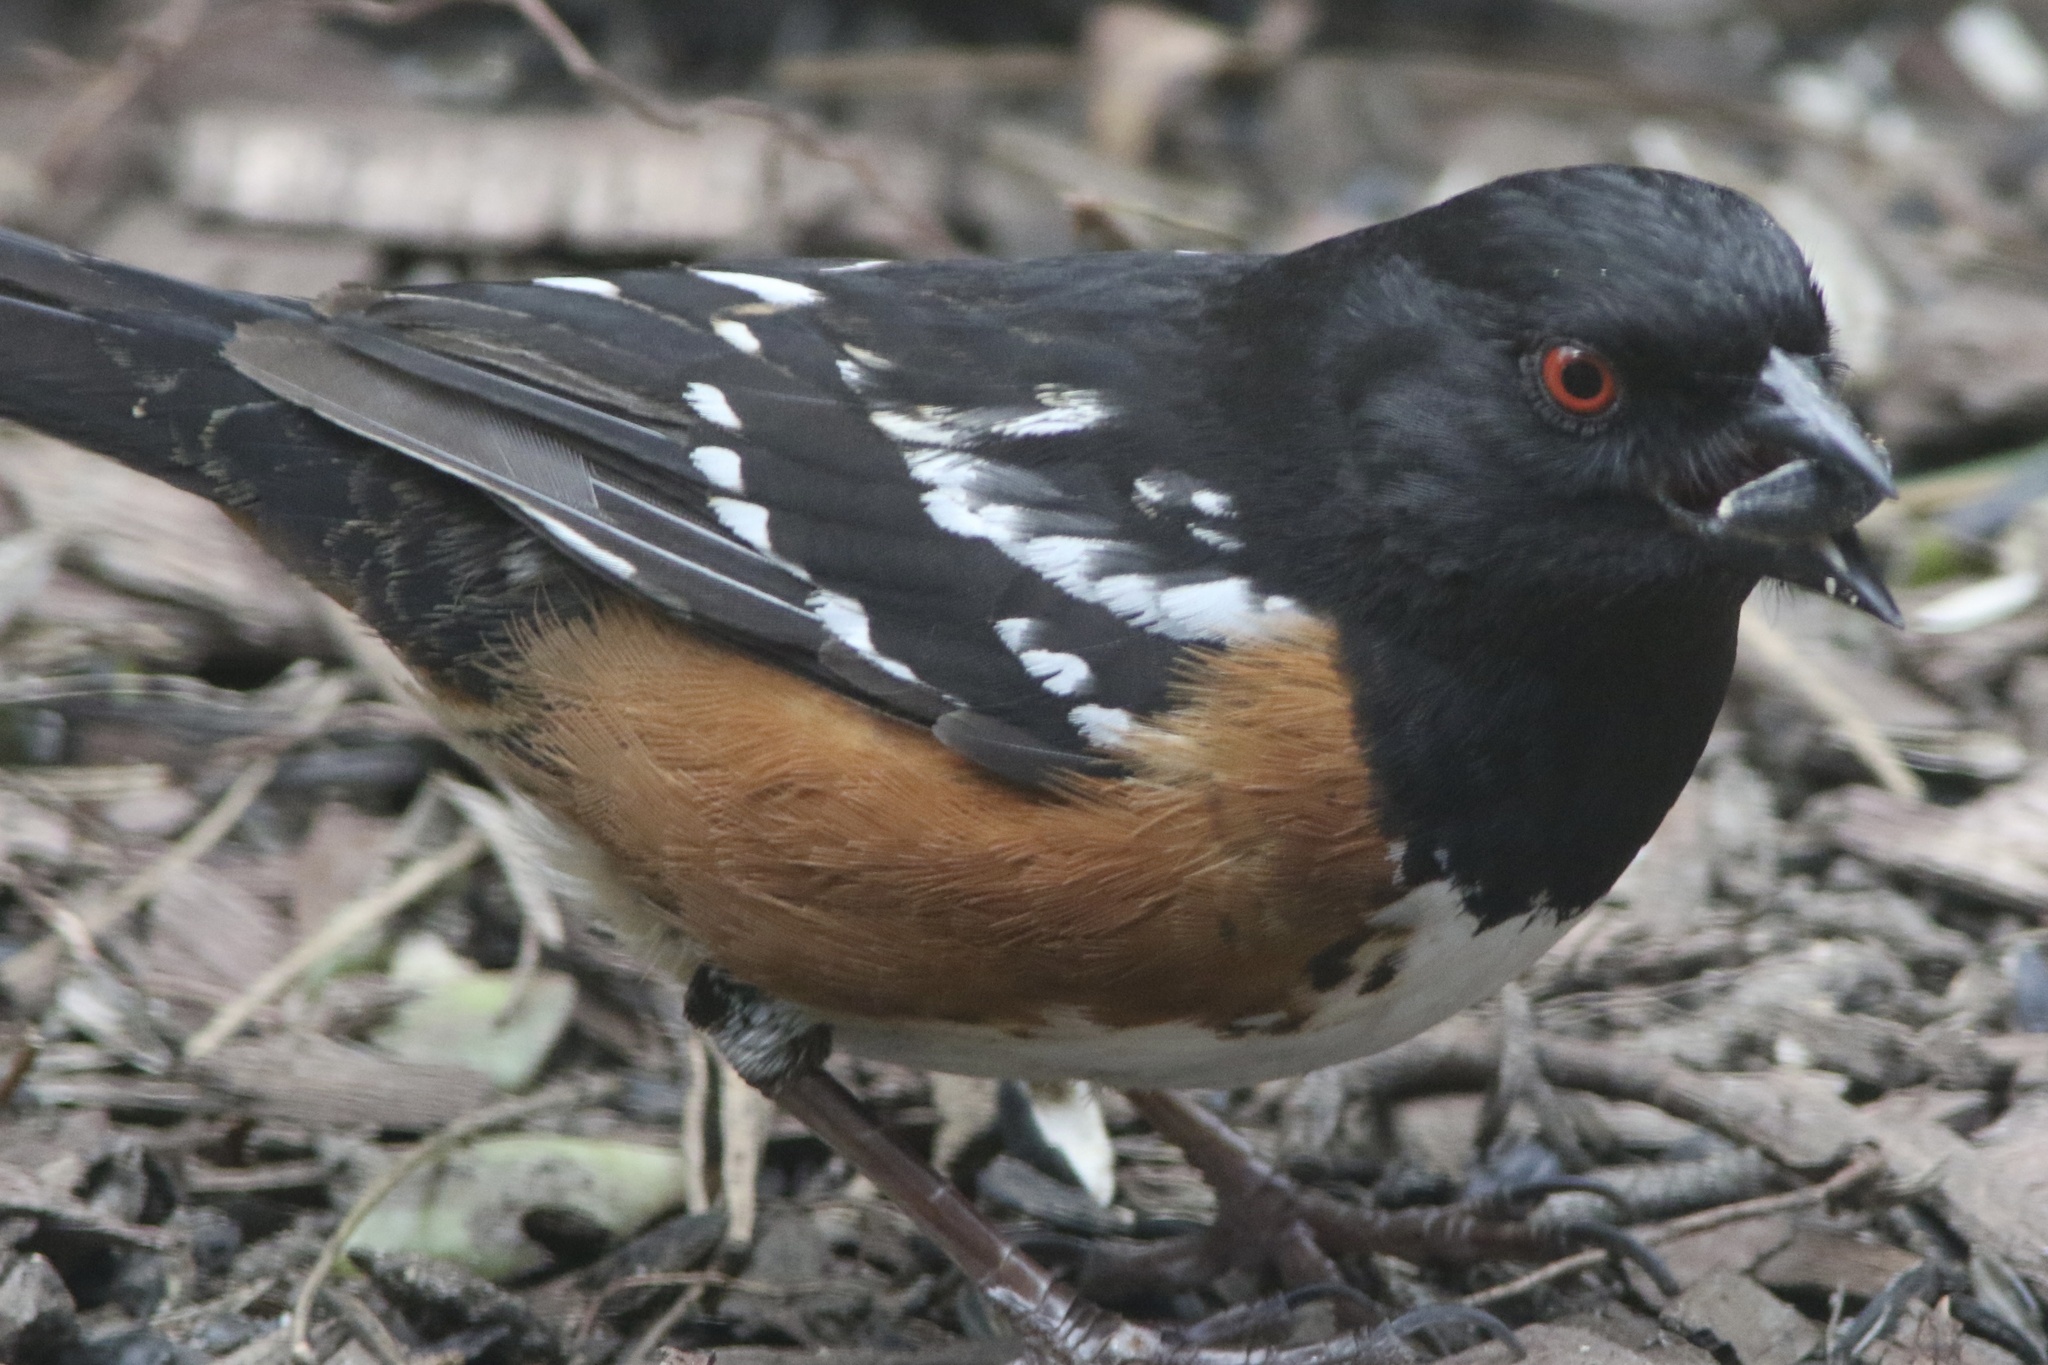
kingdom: Animalia
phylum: Chordata
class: Aves
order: Passeriformes
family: Passerellidae
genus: Pipilo
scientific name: Pipilo maculatus
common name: Spotted towhee
